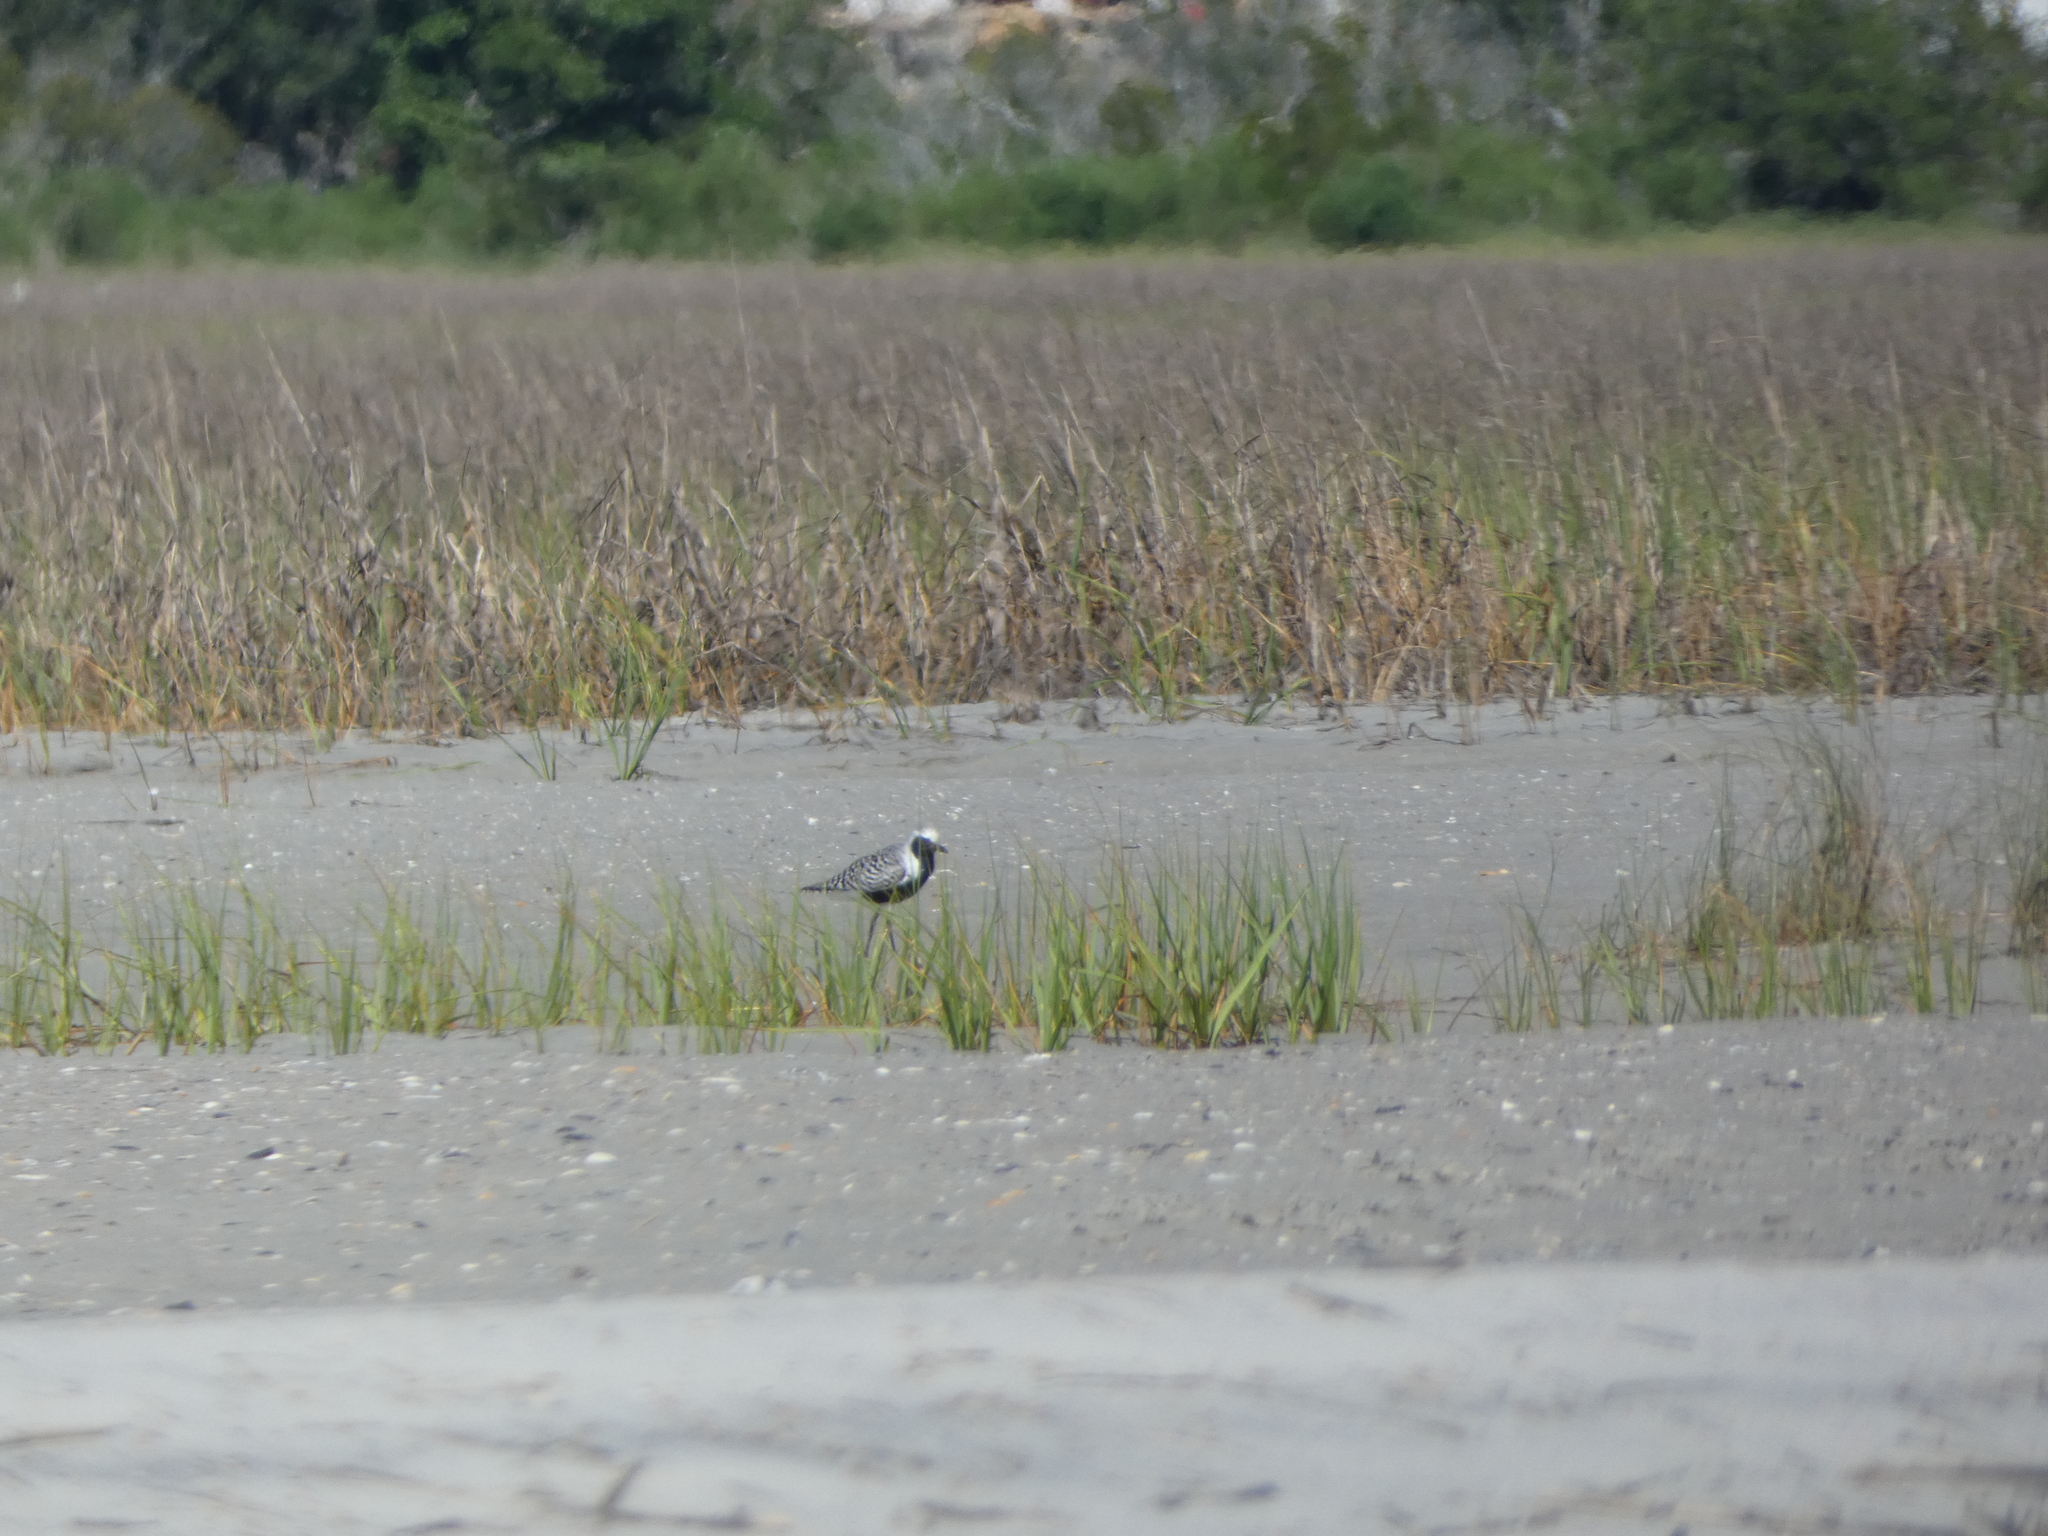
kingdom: Animalia
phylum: Chordata
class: Aves
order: Charadriiformes
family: Charadriidae
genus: Pluvialis
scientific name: Pluvialis squatarola
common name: Grey plover
